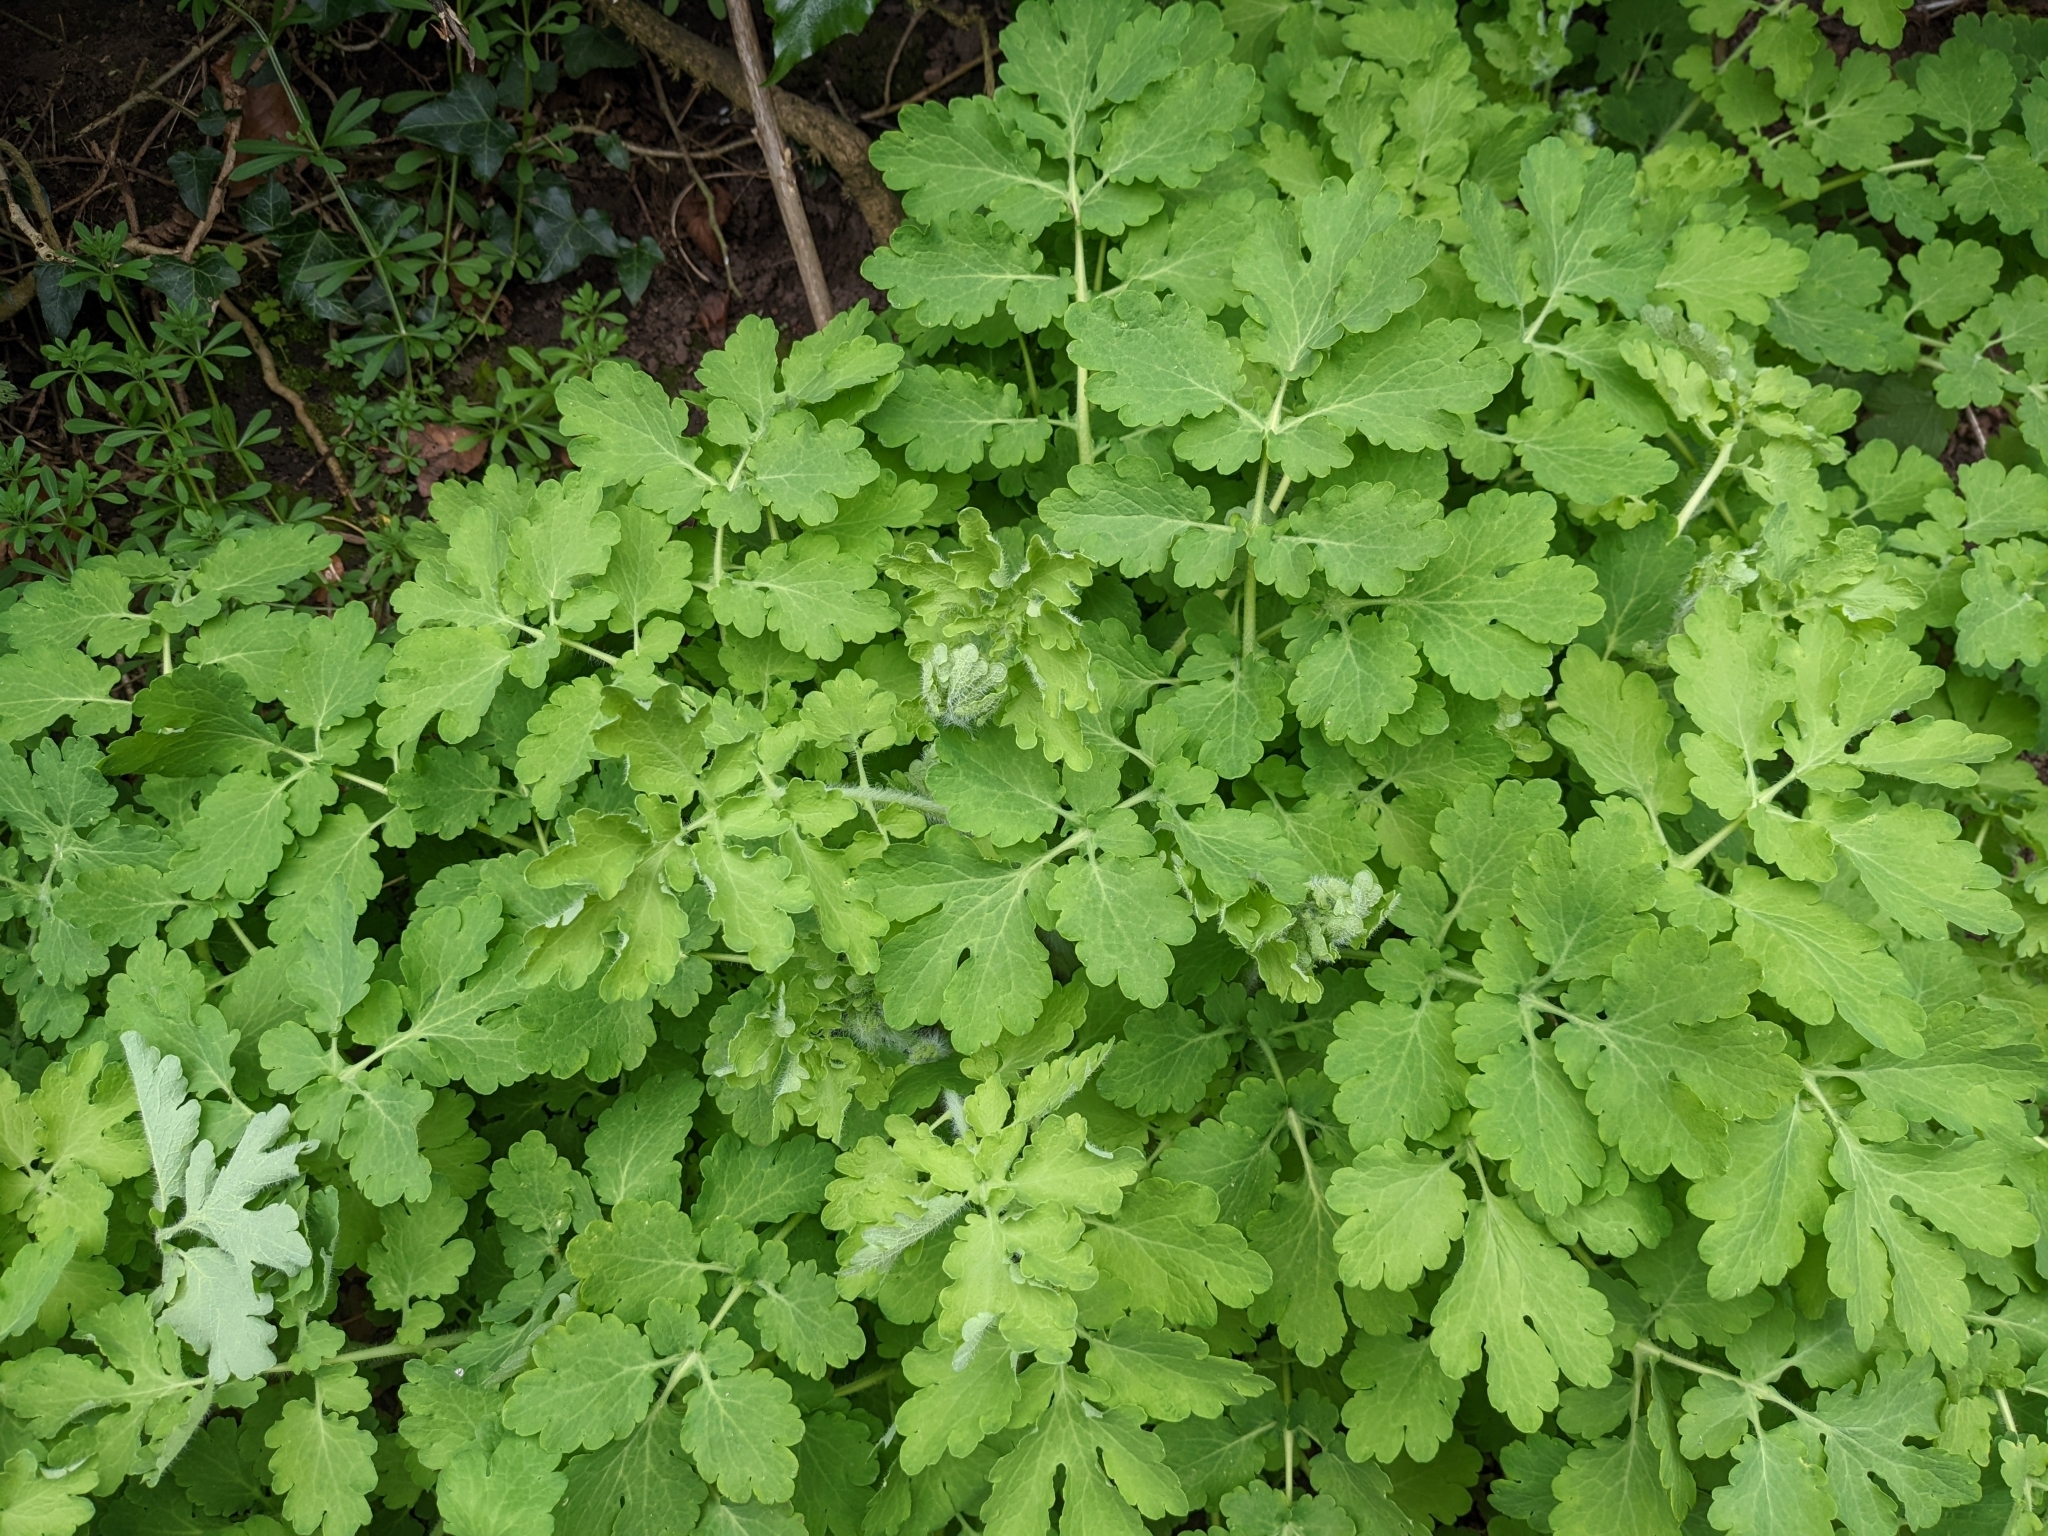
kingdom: Plantae
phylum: Tracheophyta
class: Magnoliopsida
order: Ranunculales
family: Papaveraceae
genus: Chelidonium
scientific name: Chelidonium majus
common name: Greater celandine
